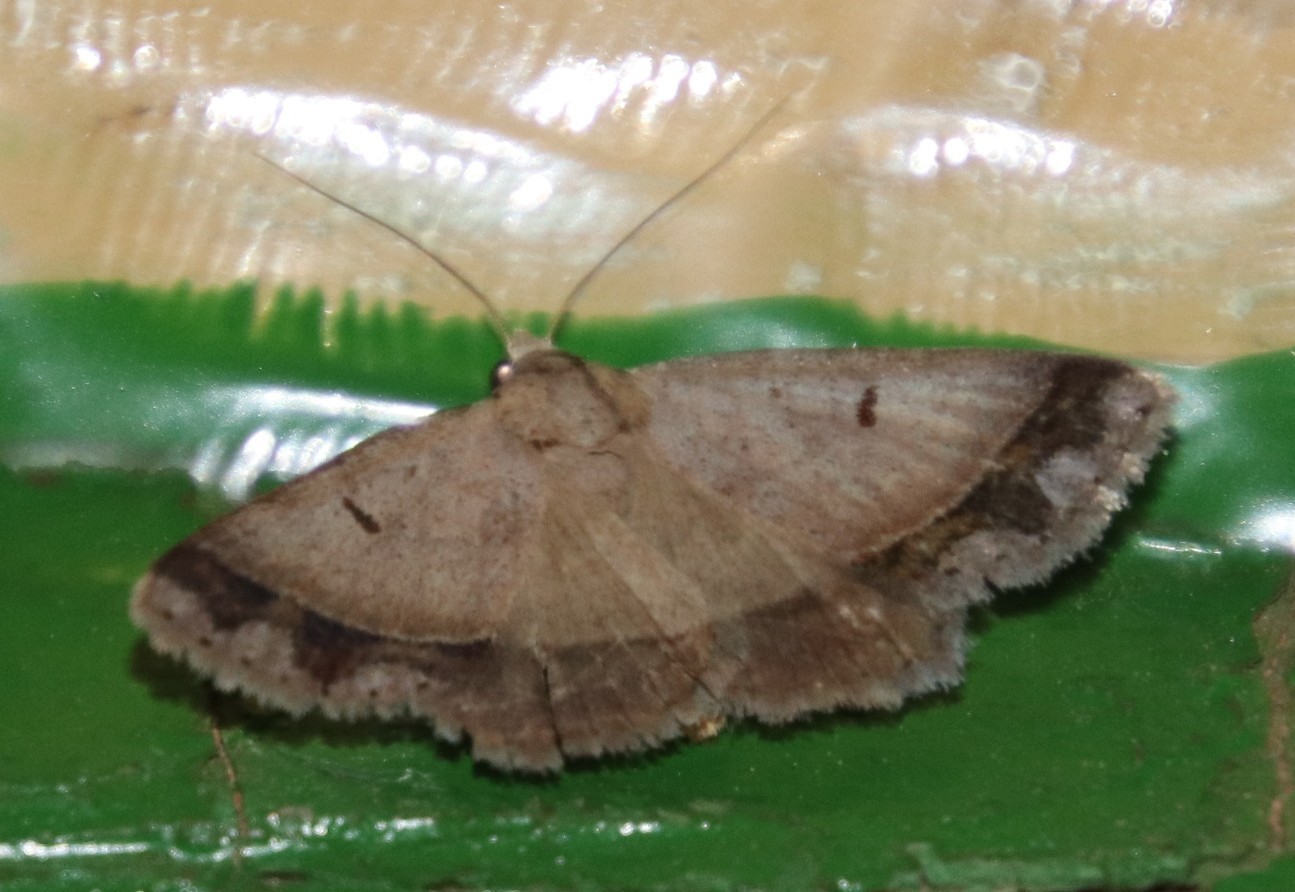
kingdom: Animalia
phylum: Arthropoda
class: Insecta
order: Lepidoptera
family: Erebidae
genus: Plecoptera
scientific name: Plecoptera annexa
